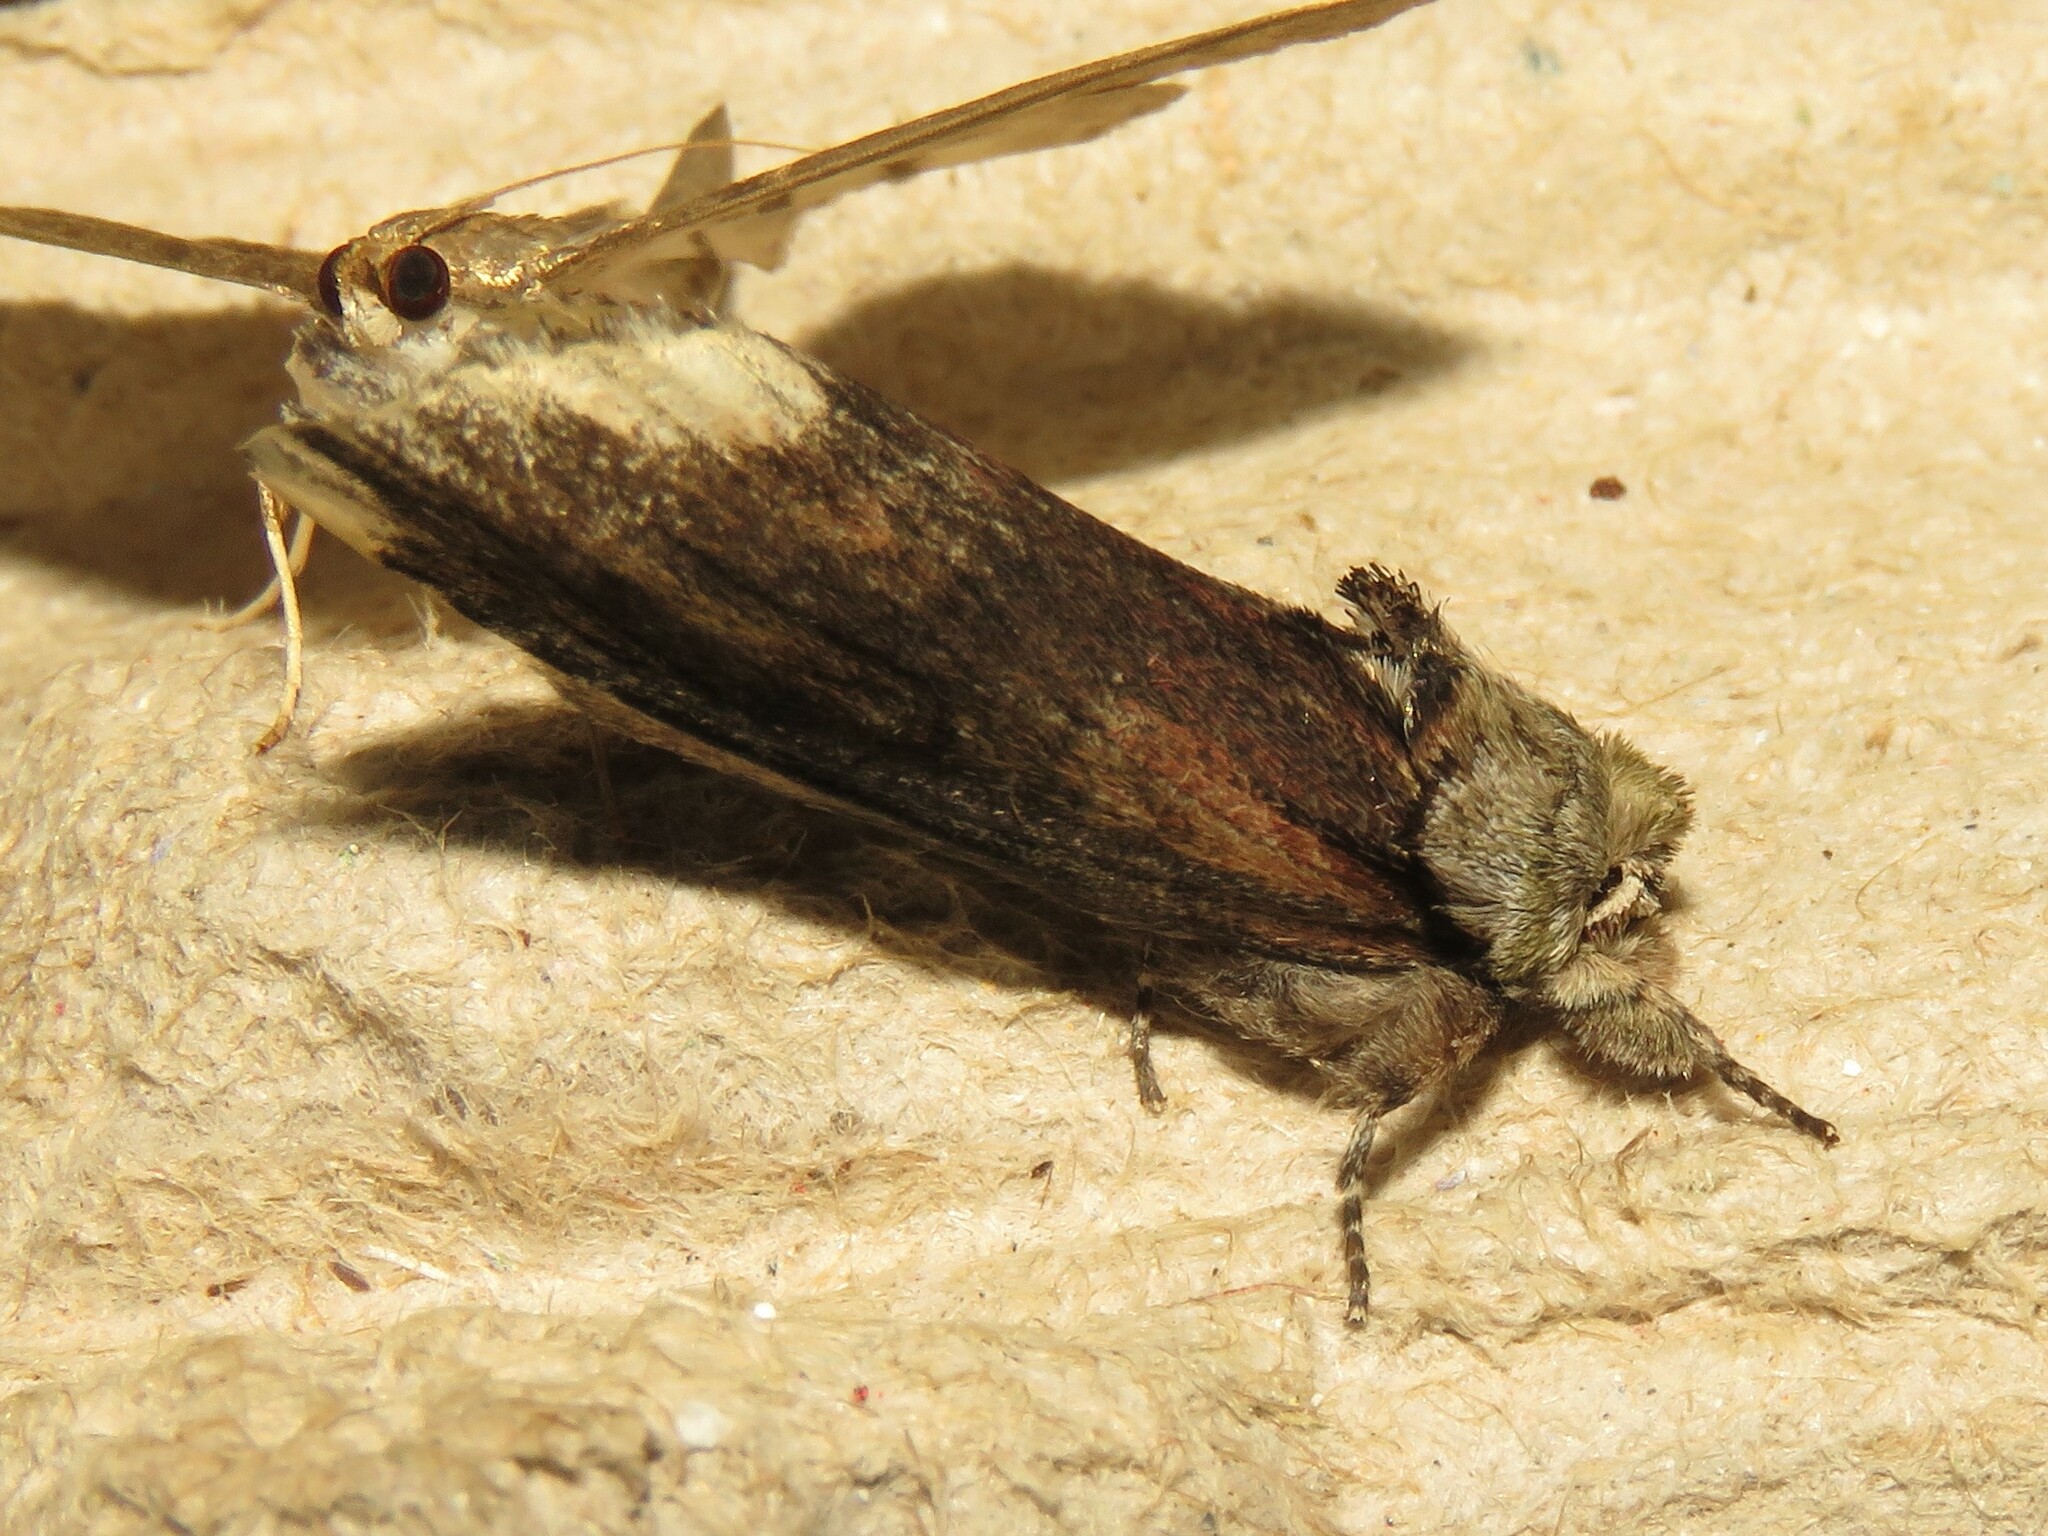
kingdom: Animalia
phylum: Arthropoda
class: Insecta
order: Lepidoptera
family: Notodontidae
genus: Schizura
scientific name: Schizura
